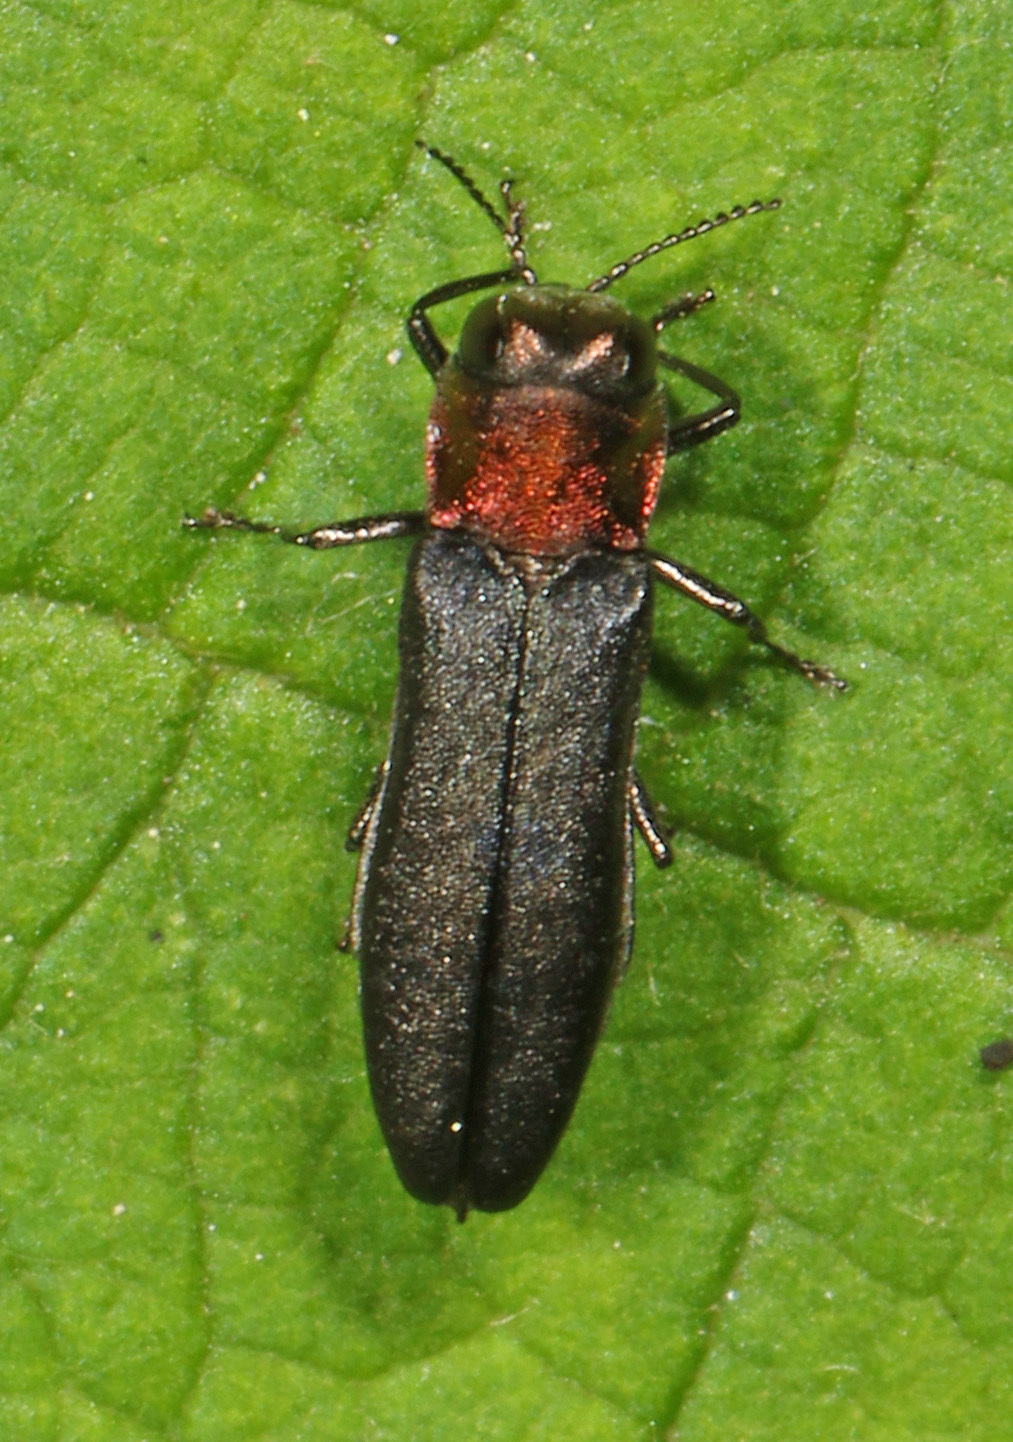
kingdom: Animalia
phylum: Arthropoda
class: Insecta
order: Coleoptera
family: Buprestidae
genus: Agrilus
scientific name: Agrilus ruficollis
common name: Red-necked cane borer beetle
